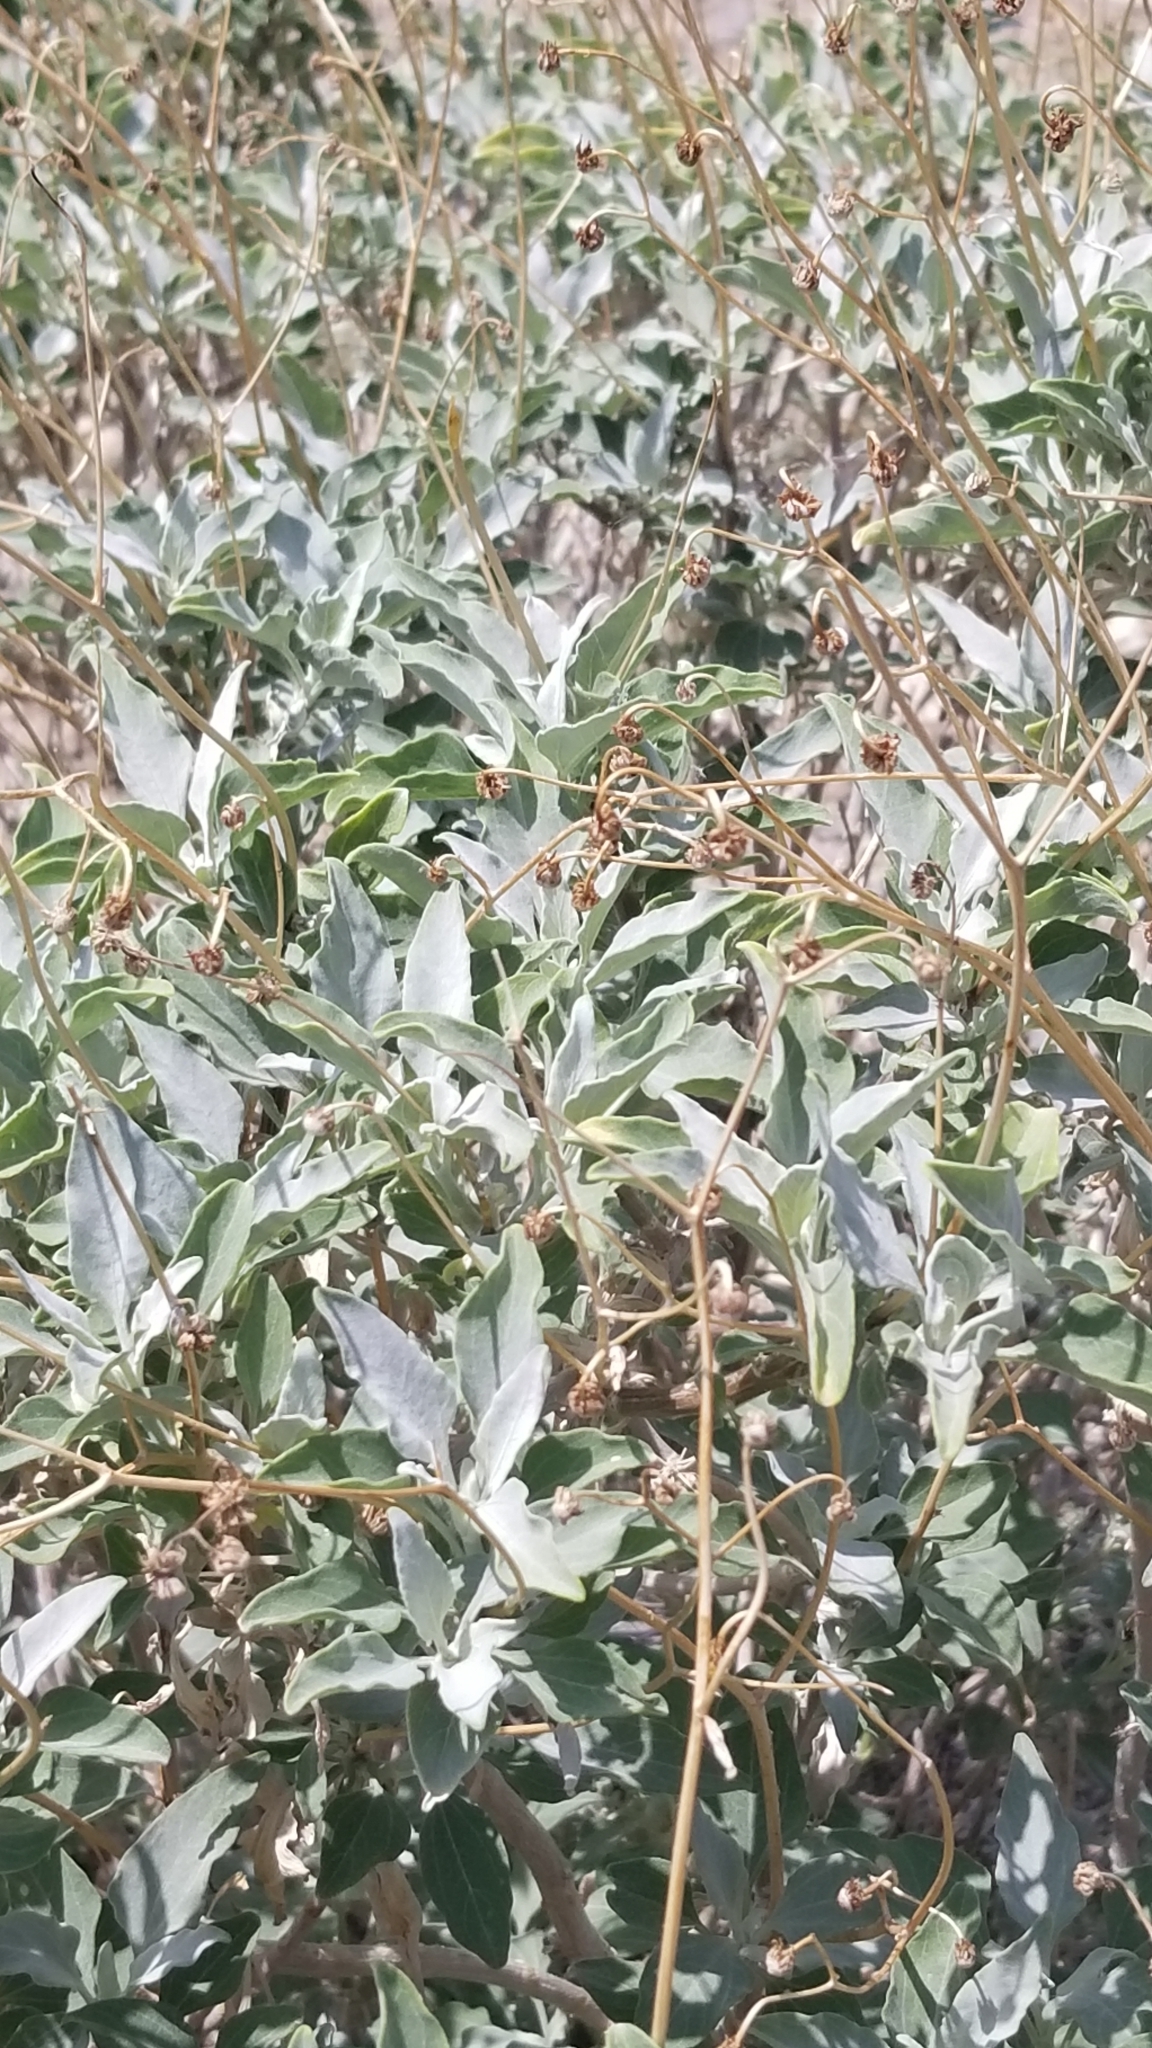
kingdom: Plantae
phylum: Tracheophyta
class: Magnoliopsida
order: Asterales
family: Asteraceae
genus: Encelia
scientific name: Encelia farinosa
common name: Brittlebush
